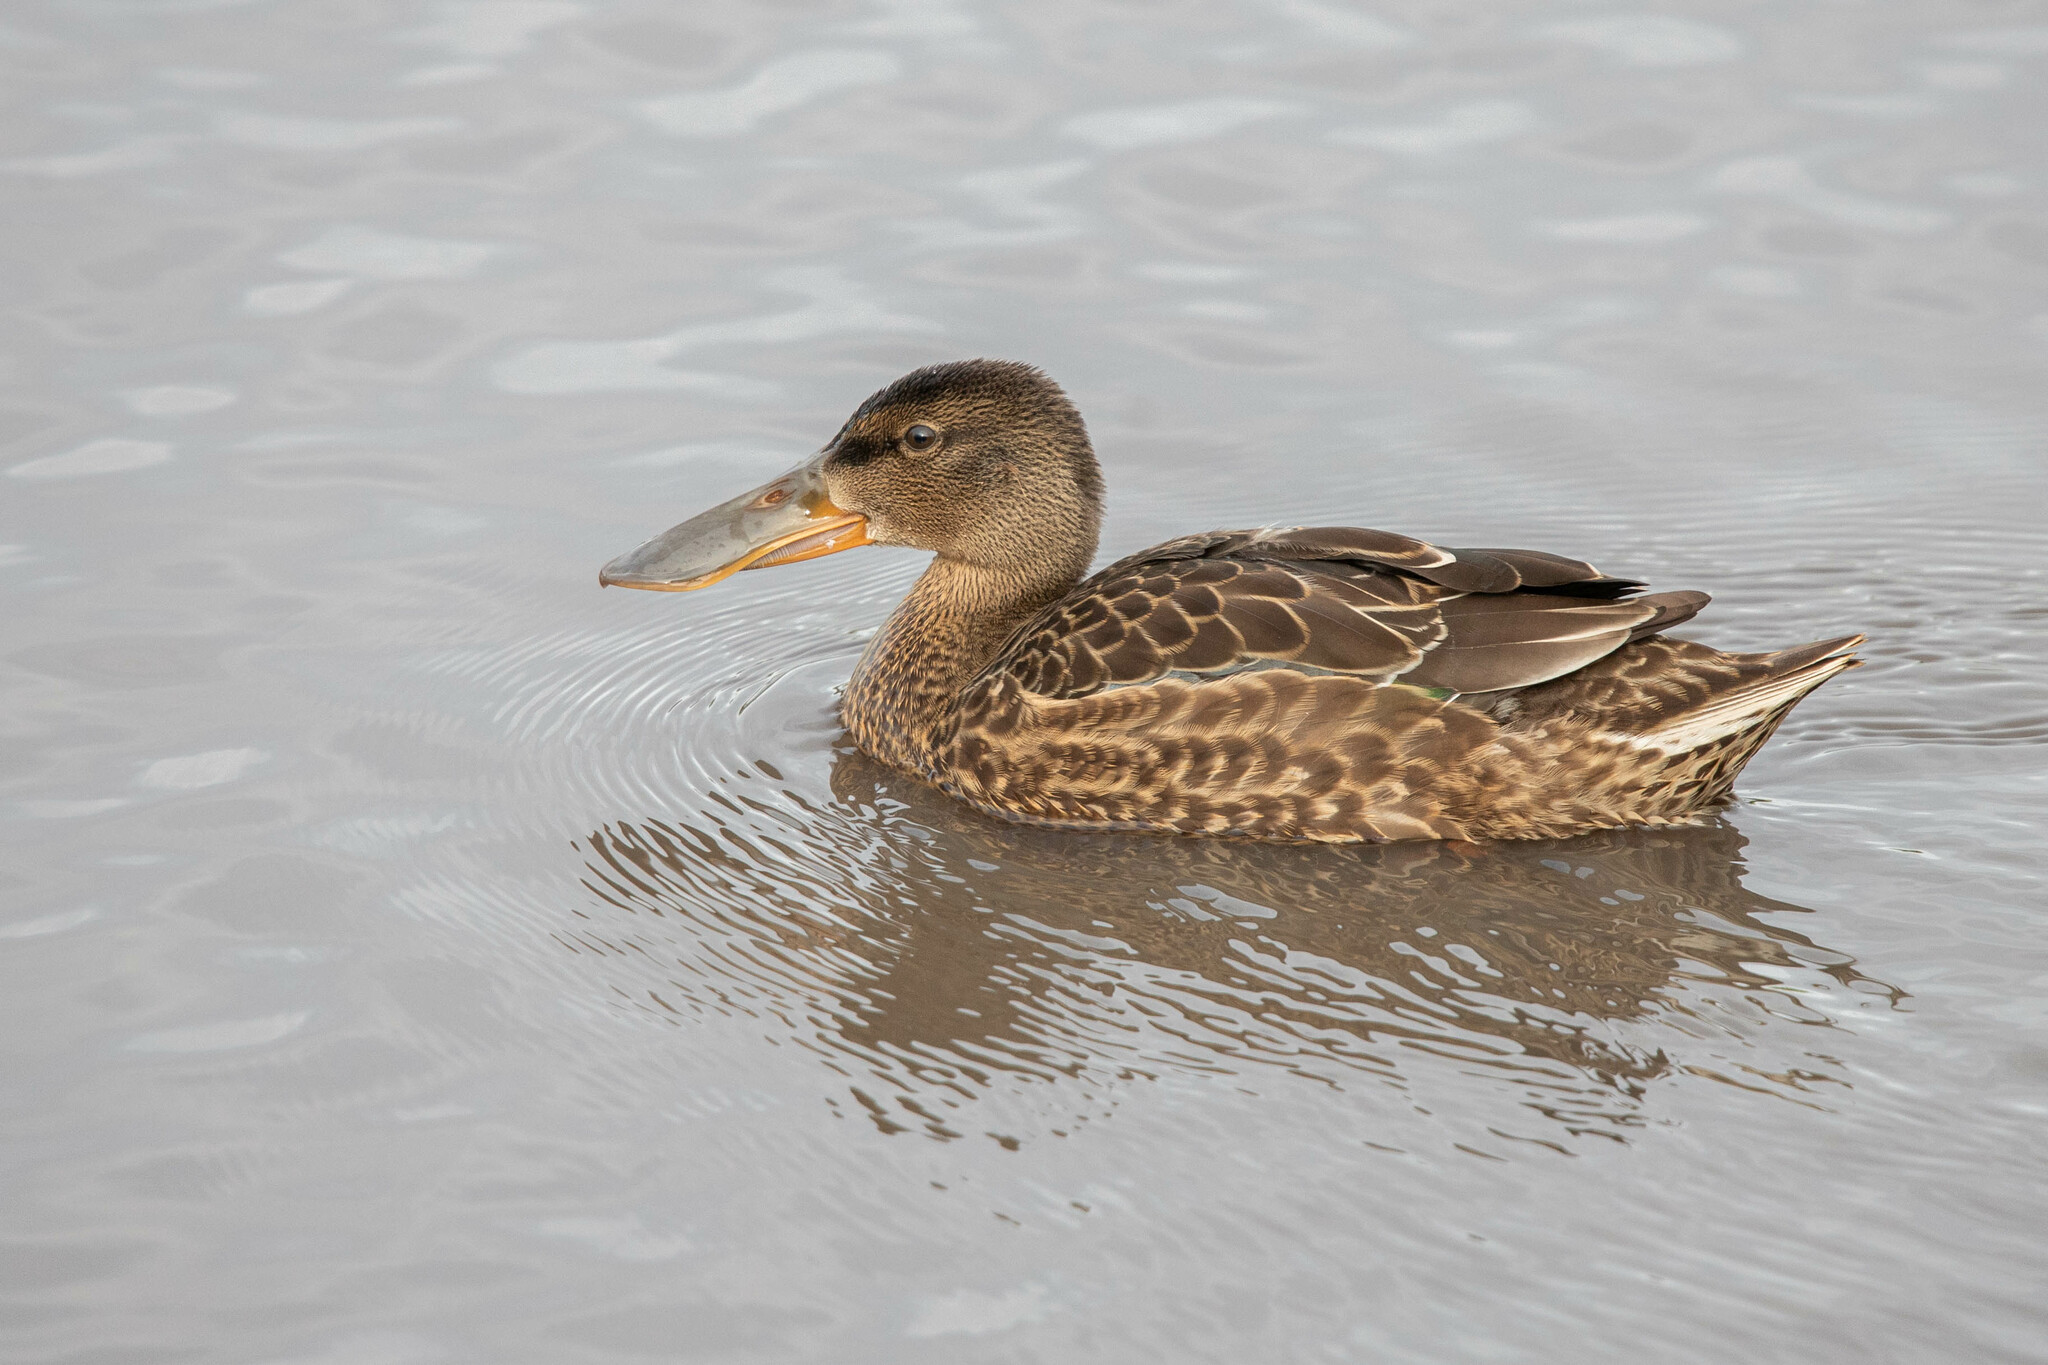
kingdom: Animalia
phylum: Chordata
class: Aves
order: Anseriformes
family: Anatidae
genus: Spatula
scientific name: Spatula clypeata
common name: Northern shoveler
